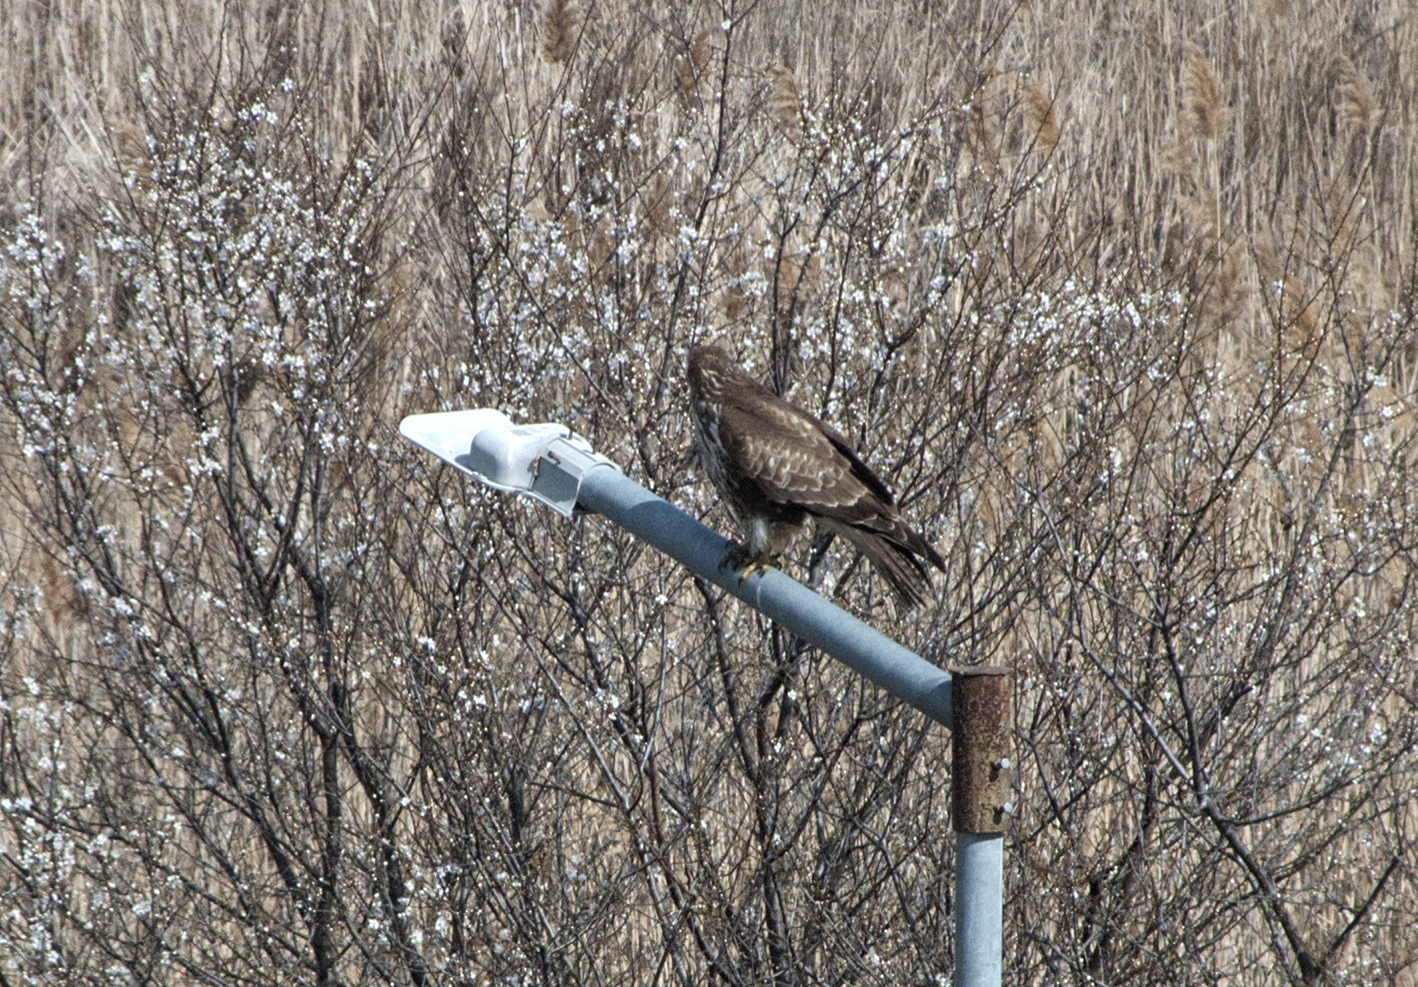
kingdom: Animalia
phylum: Chordata
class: Aves
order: Accipitriformes
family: Accipitridae
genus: Buteo
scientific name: Buteo buteo
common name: Common buzzard
